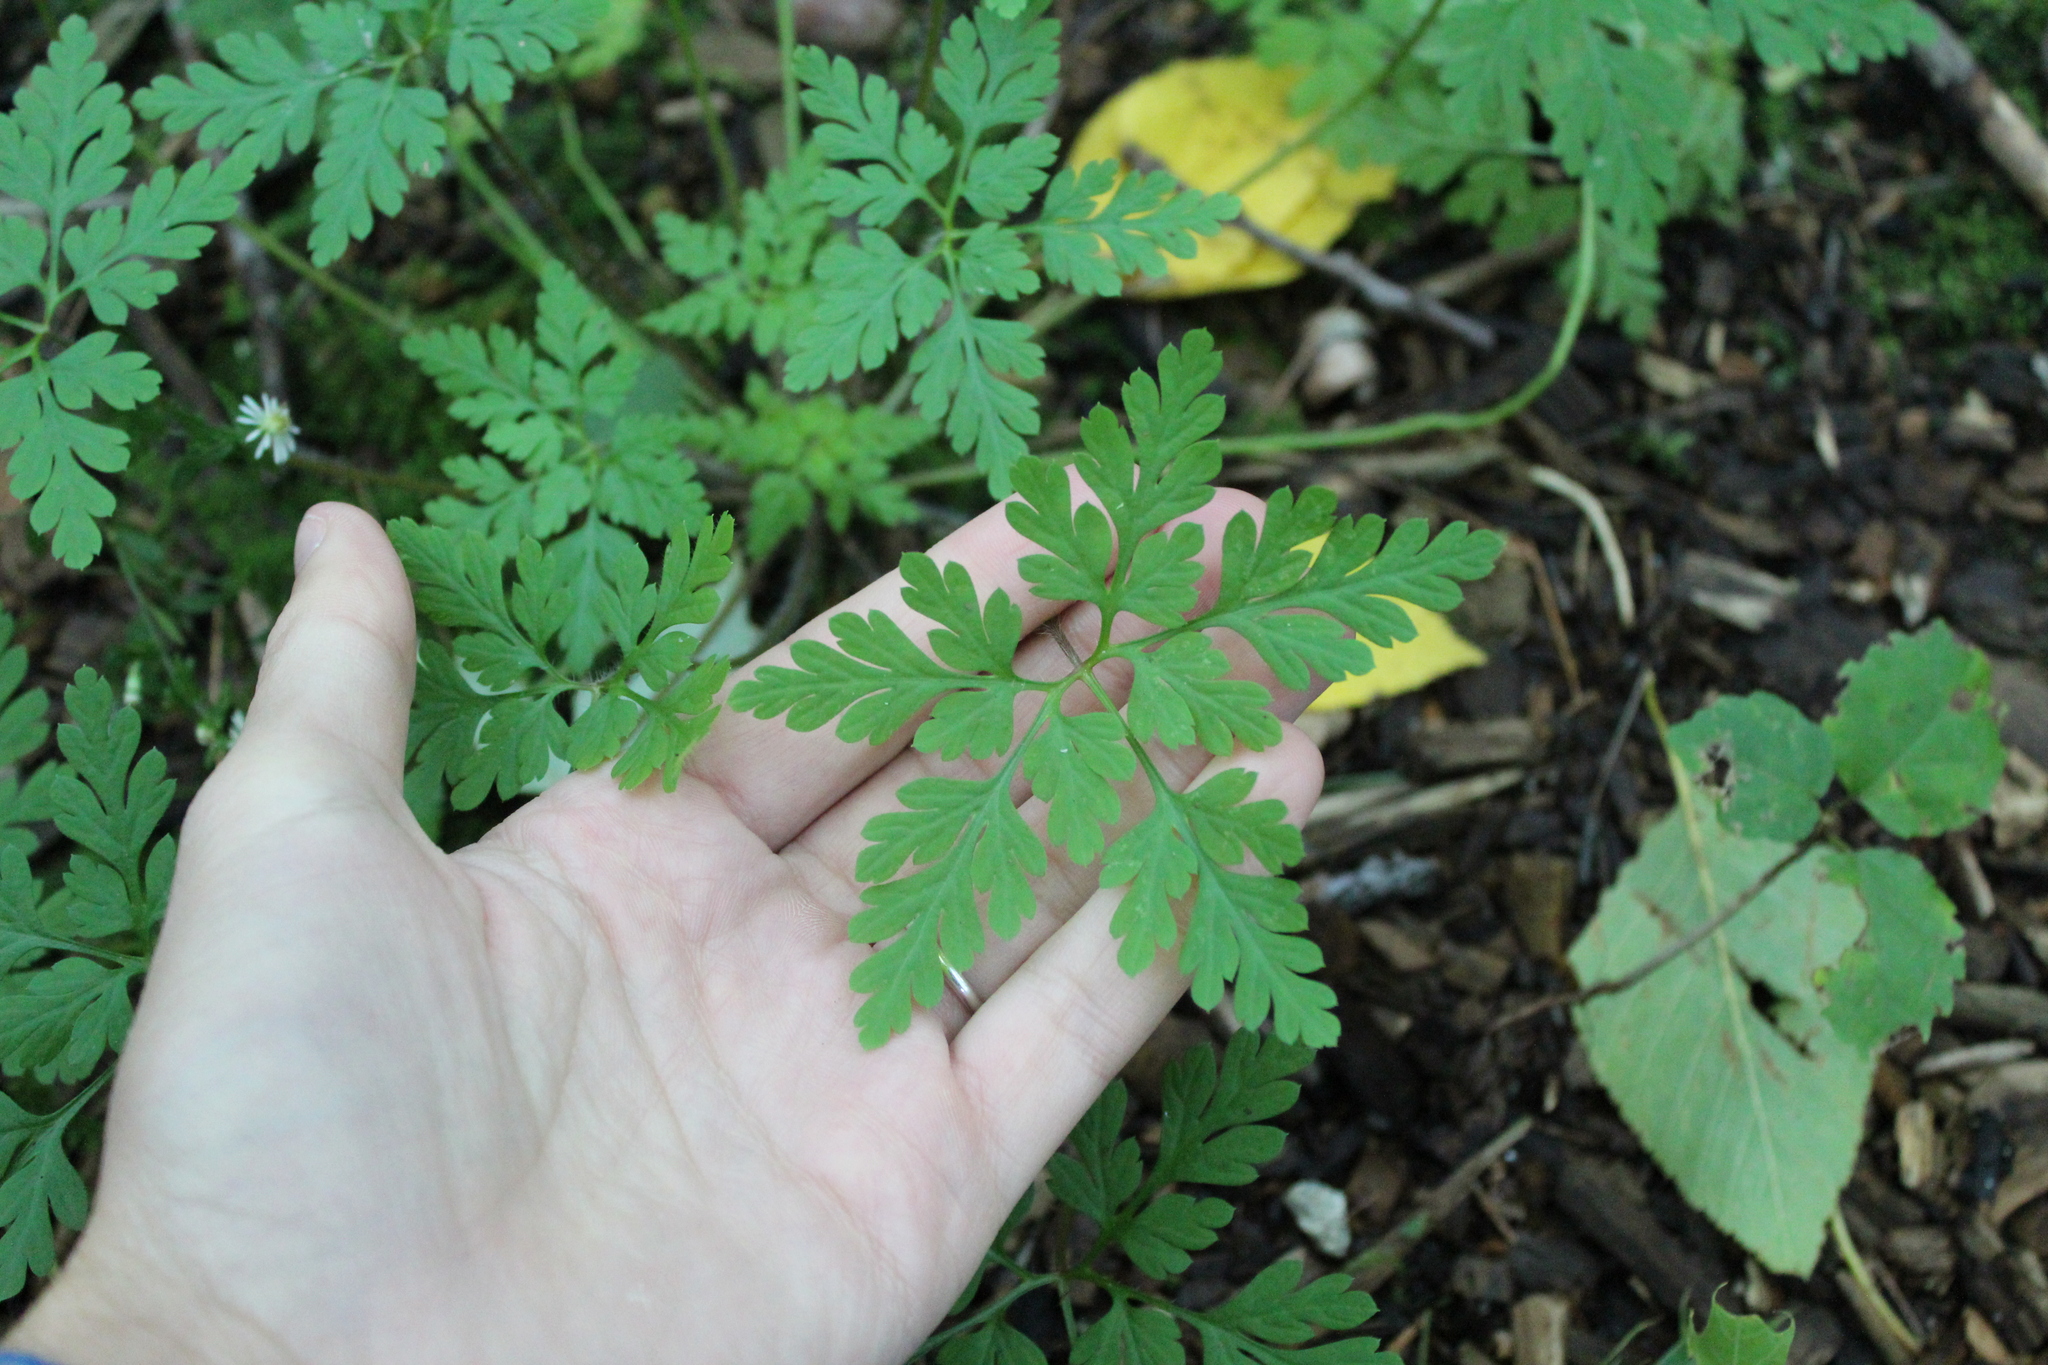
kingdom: Plantae
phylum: Tracheophyta
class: Magnoliopsida
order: Geraniales
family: Geraniaceae
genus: Geranium
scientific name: Geranium robertianum
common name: Herb-robert
